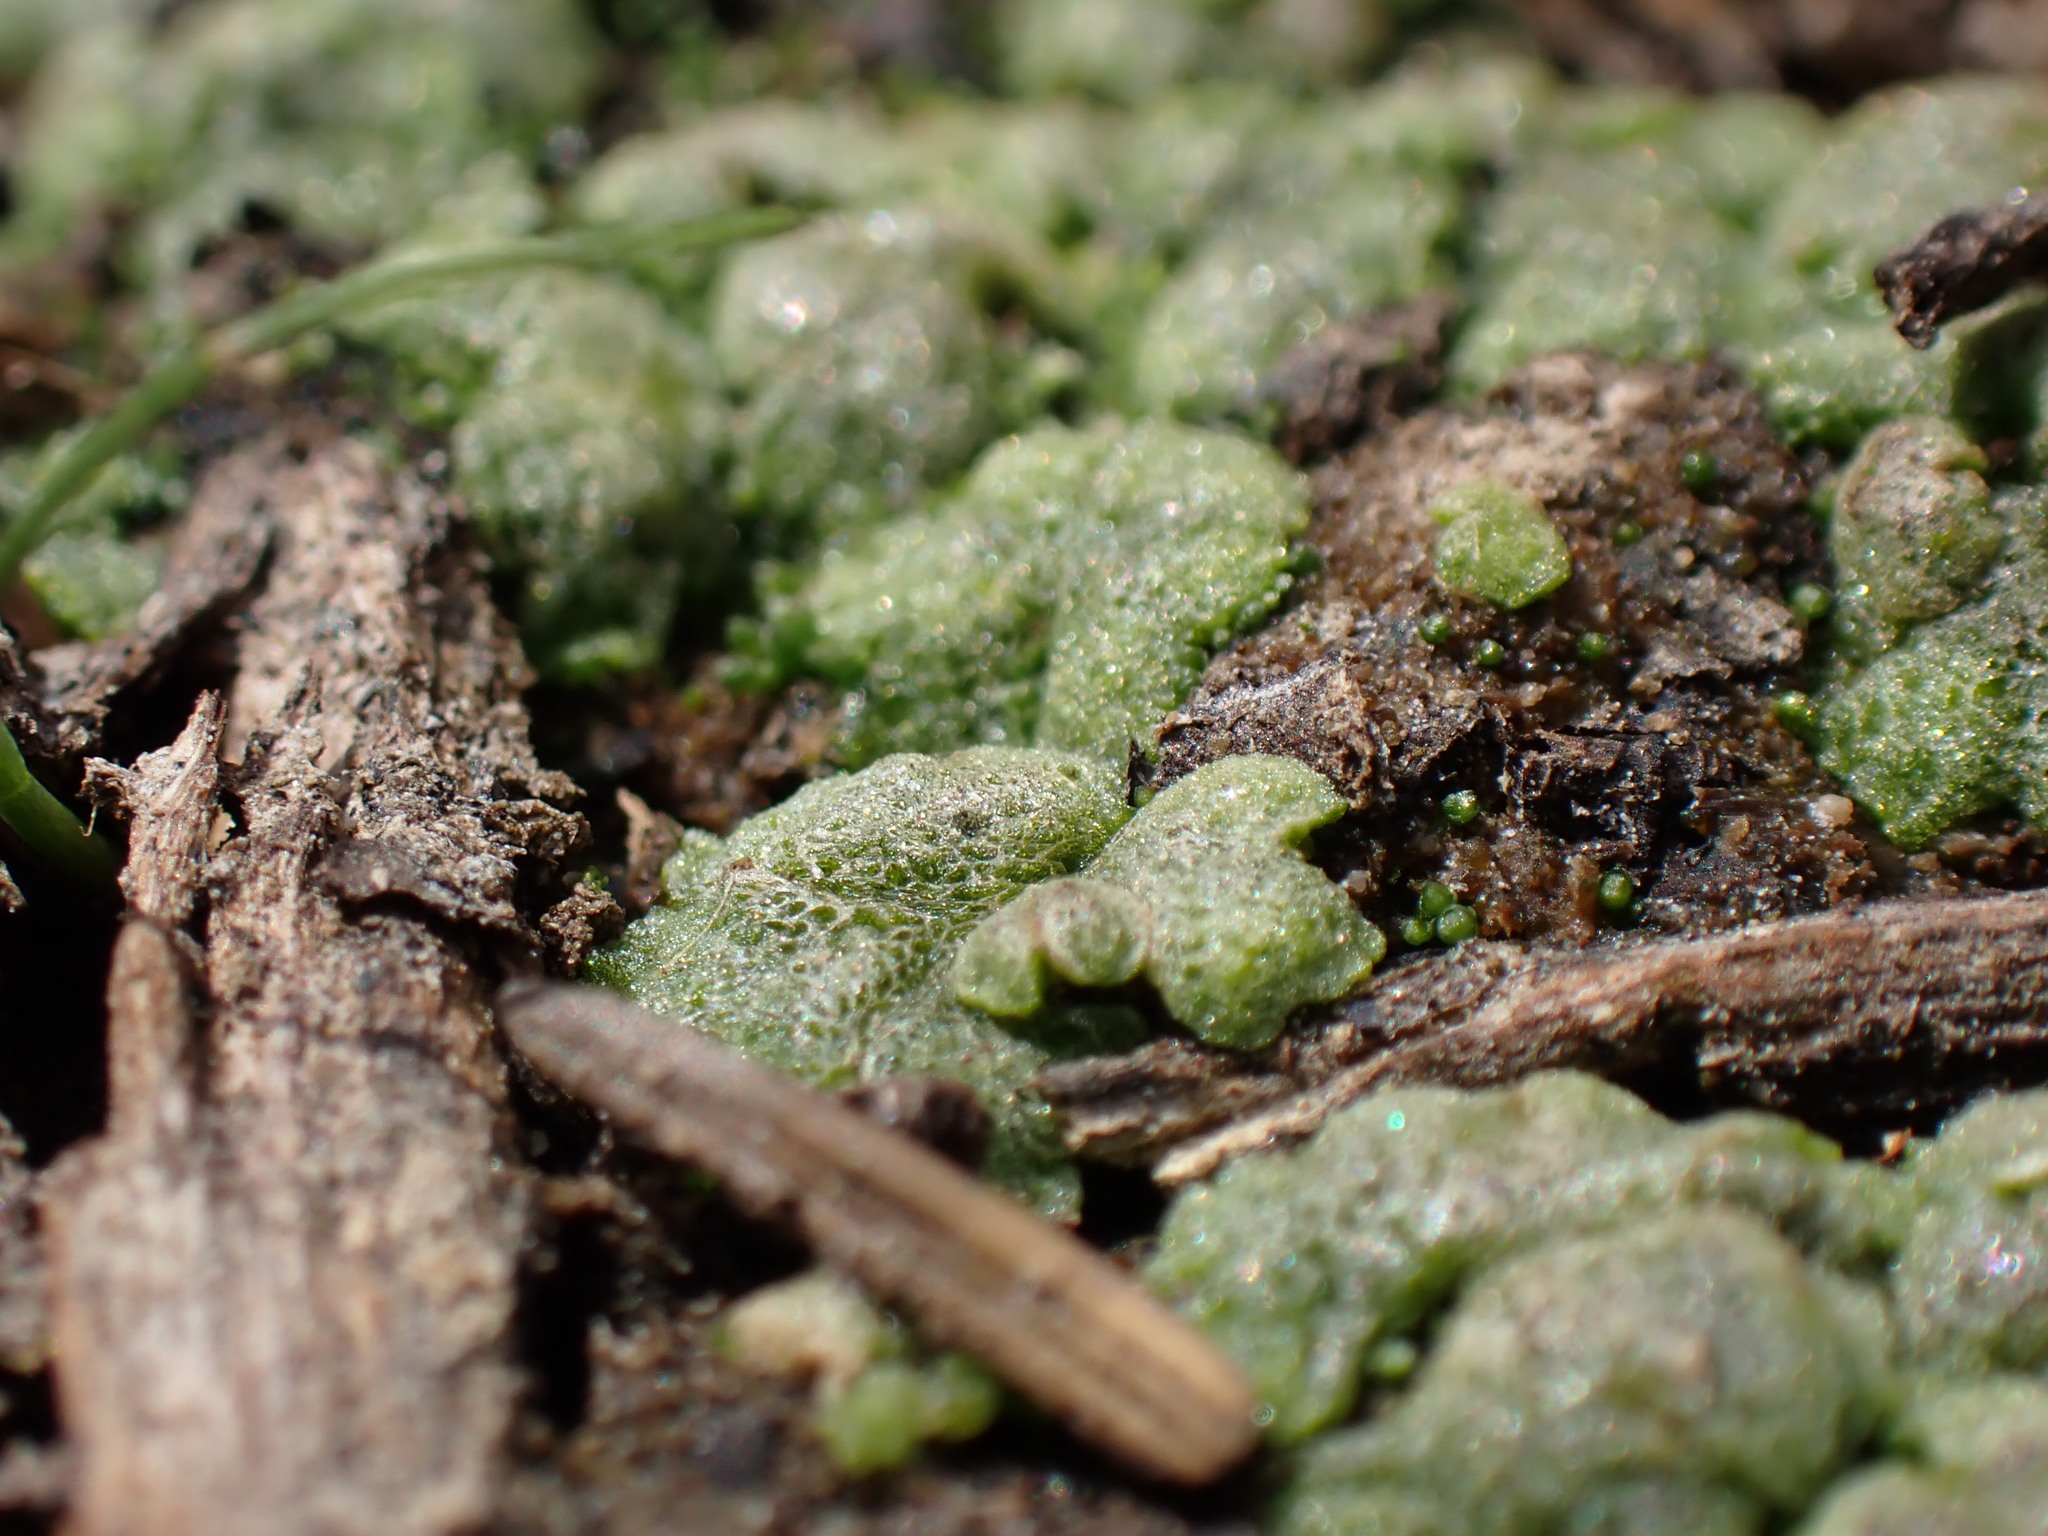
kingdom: Plantae
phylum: Marchantiophyta
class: Marchantiopsida
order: Marchantiales
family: Ricciaceae
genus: Riccia
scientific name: Riccia cavernosa
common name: Cavernous crystalwort
